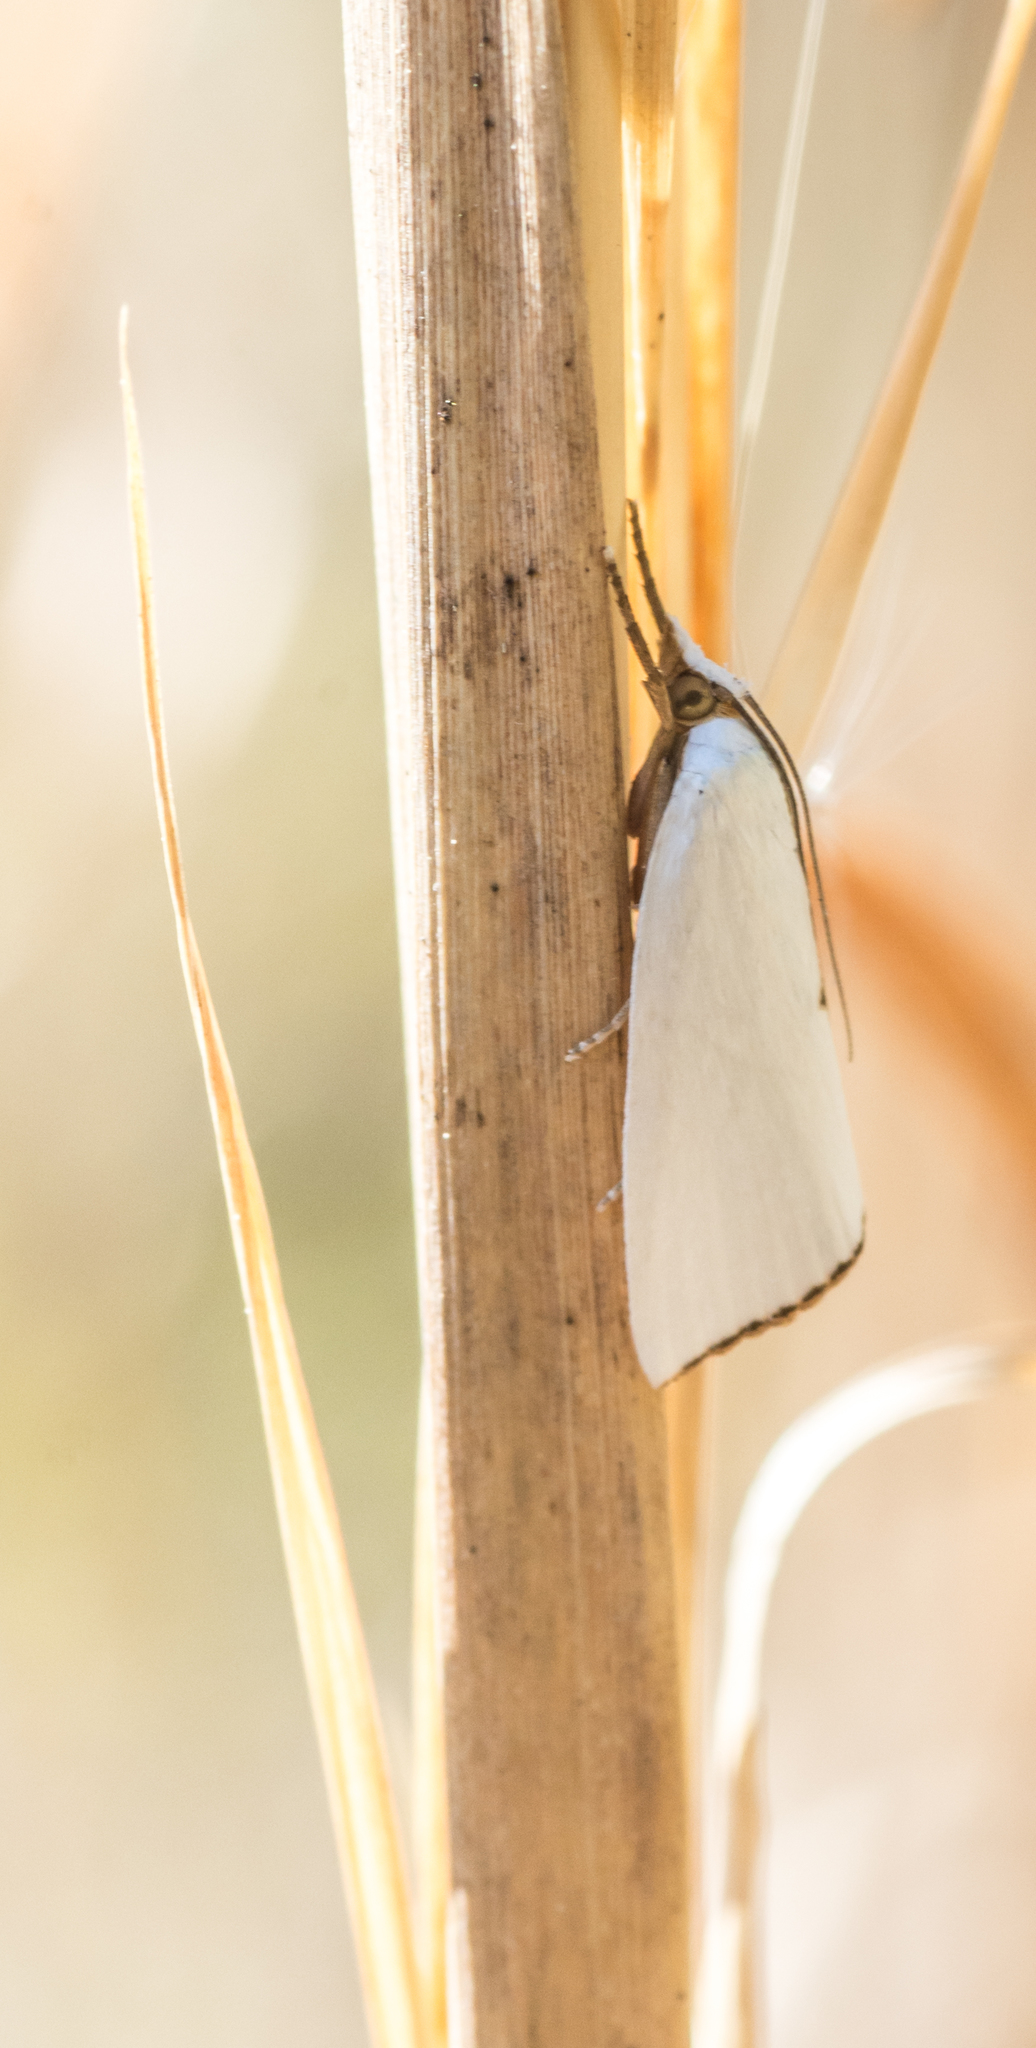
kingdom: Animalia
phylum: Arthropoda
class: Insecta
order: Lepidoptera
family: Crambidae
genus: Argyria
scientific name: Argyria nivalis
